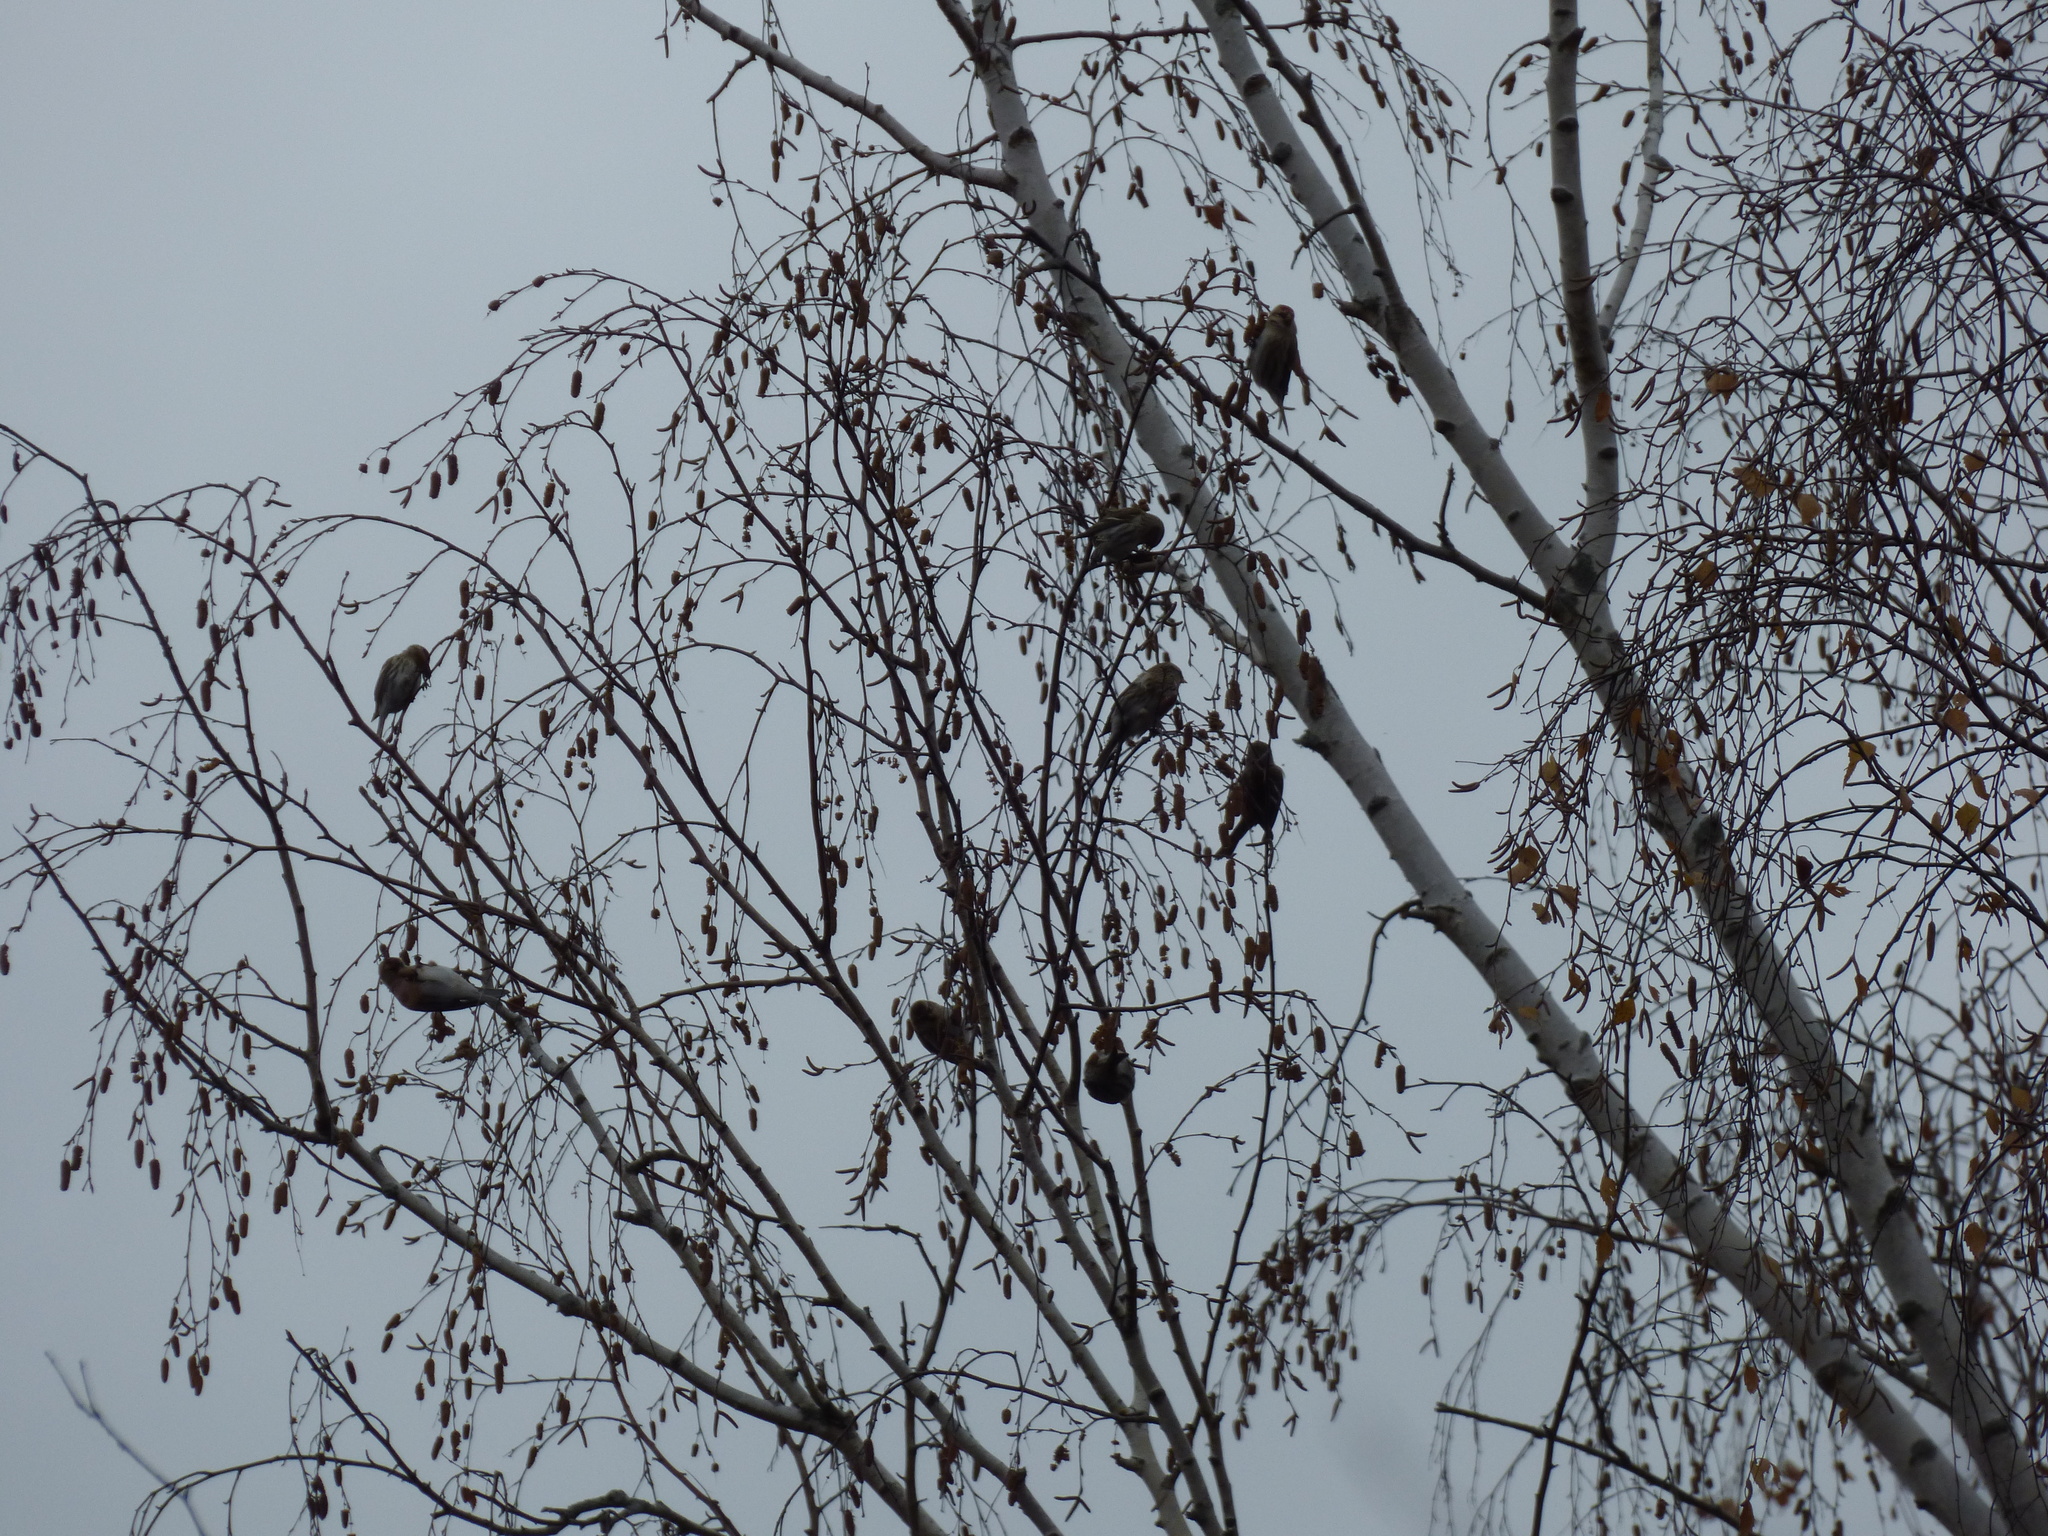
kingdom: Animalia
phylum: Chordata
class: Aves
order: Passeriformes
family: Fringillidae
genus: Acanthis
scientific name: Acanthis flammea
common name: Common redpoll
